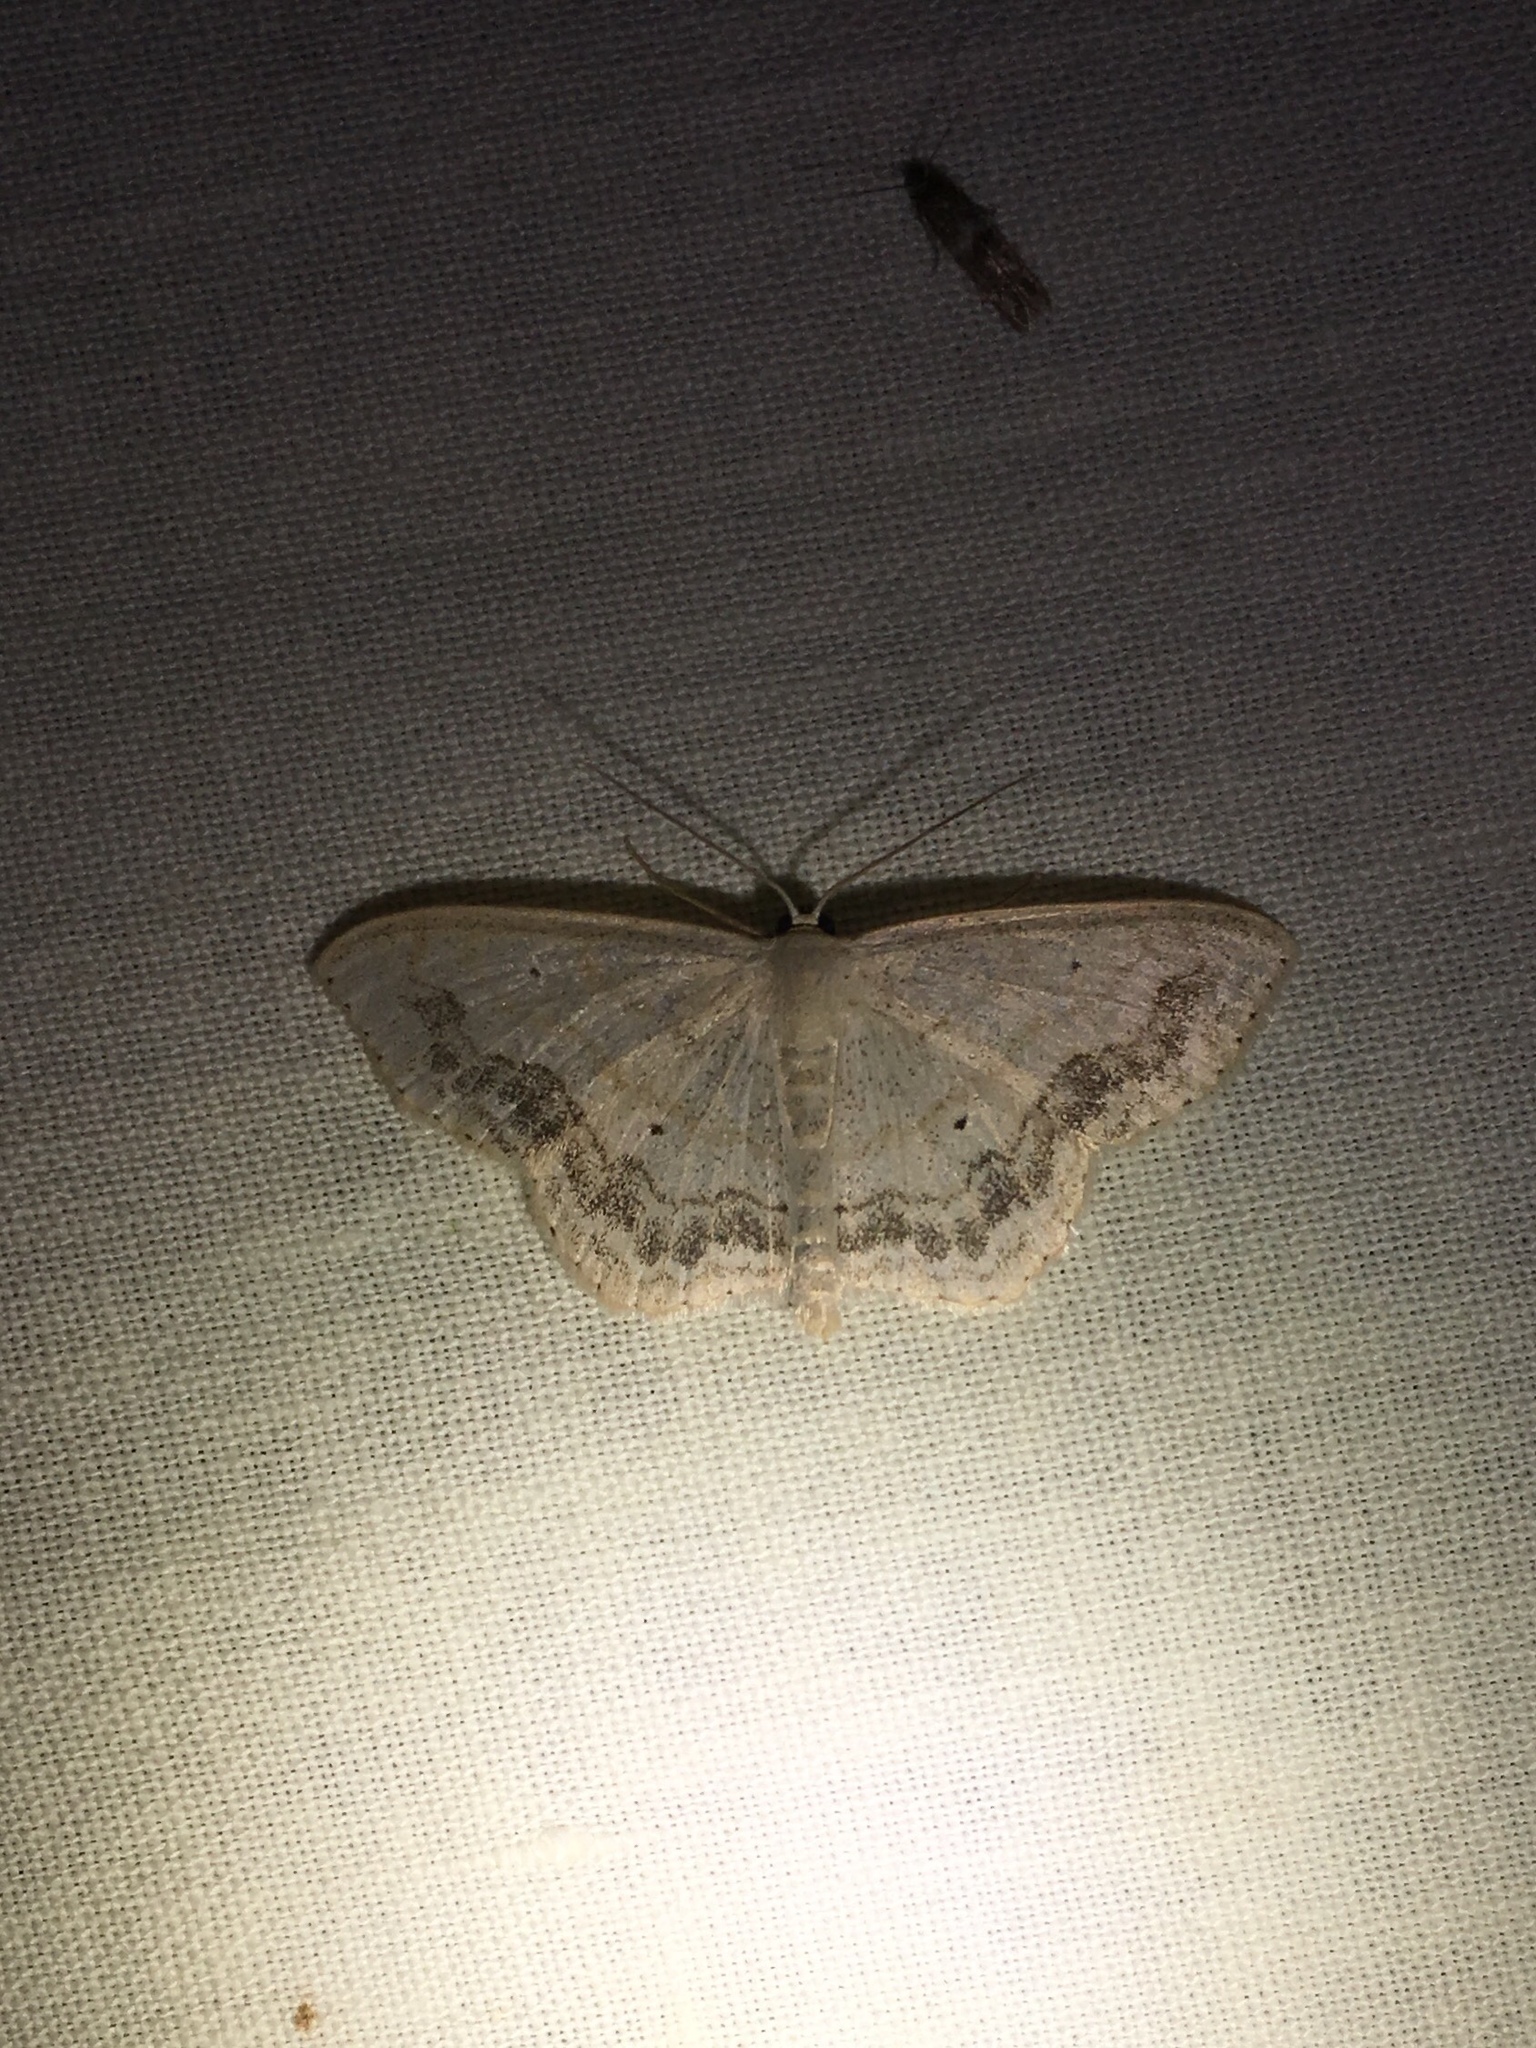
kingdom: Animalia
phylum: Arthropoda
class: Insecta
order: Lepidoptera
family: Geometridae
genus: Scopula
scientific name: Scopula limboundata
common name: Large lace border
